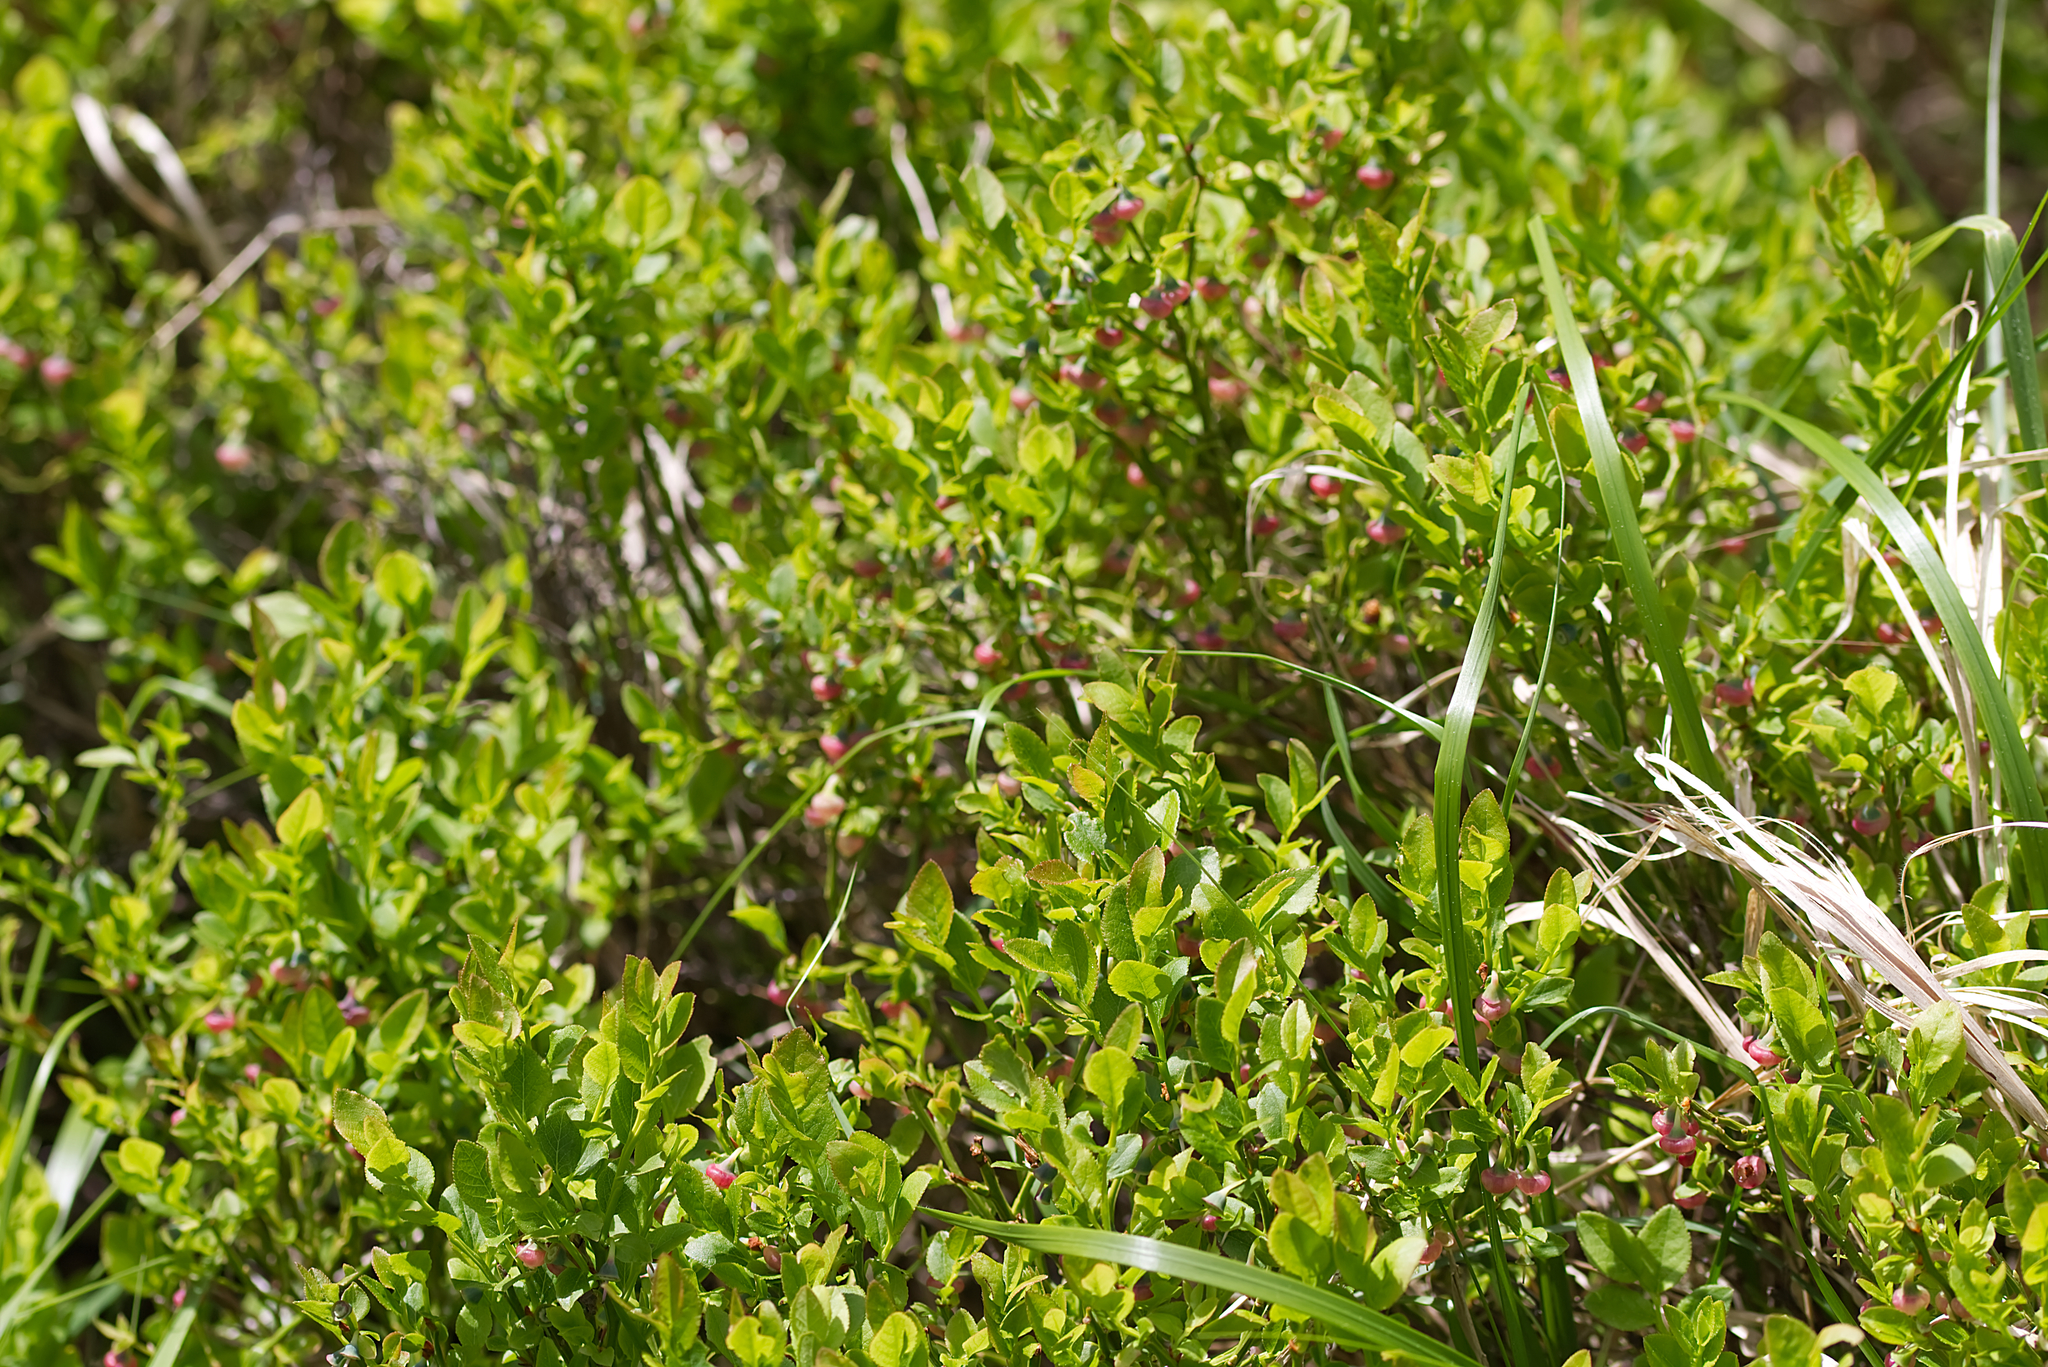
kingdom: Plantae
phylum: Tracheophyta
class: Magnoliopsida
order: Ericales
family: Ericaceae
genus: Vaccinium
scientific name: Vaccinium myrtillus
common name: Bilberry
